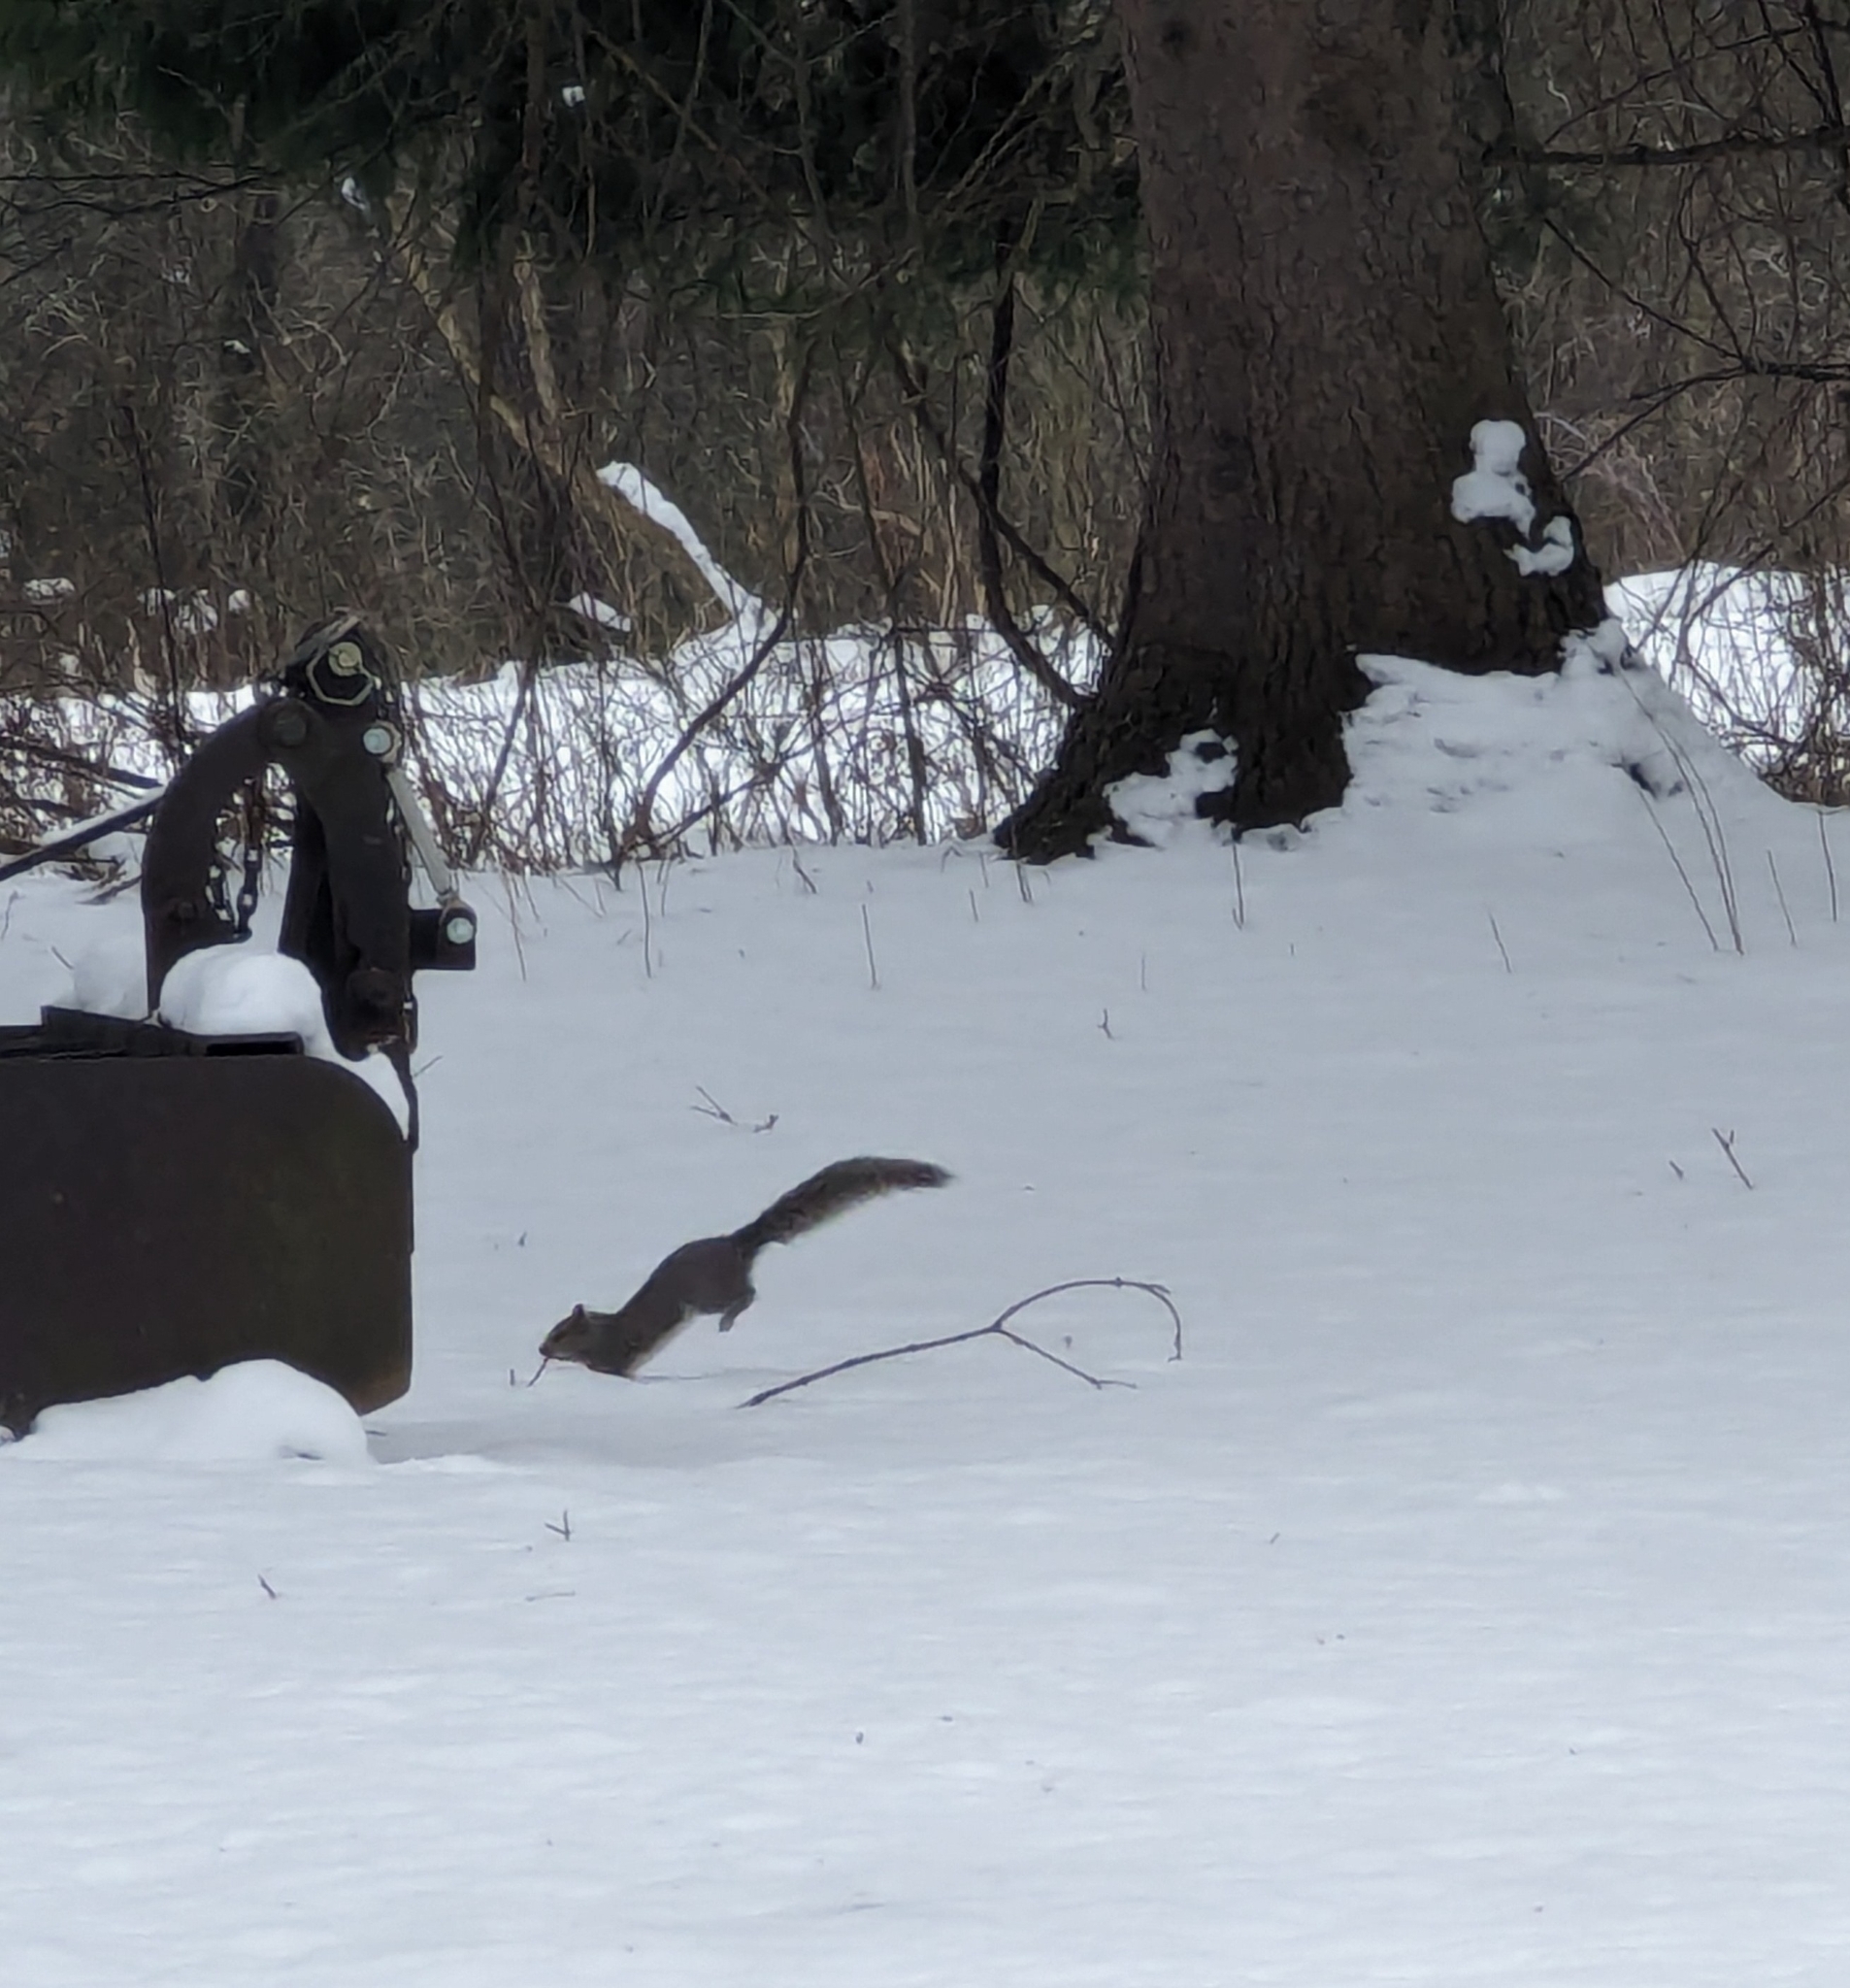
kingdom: Animalia
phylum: Chordata
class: Mammalia
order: Rodentia
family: Sciuridae
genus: Sciurus
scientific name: Sciurus carolinensis
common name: Eastern gray squirrel
